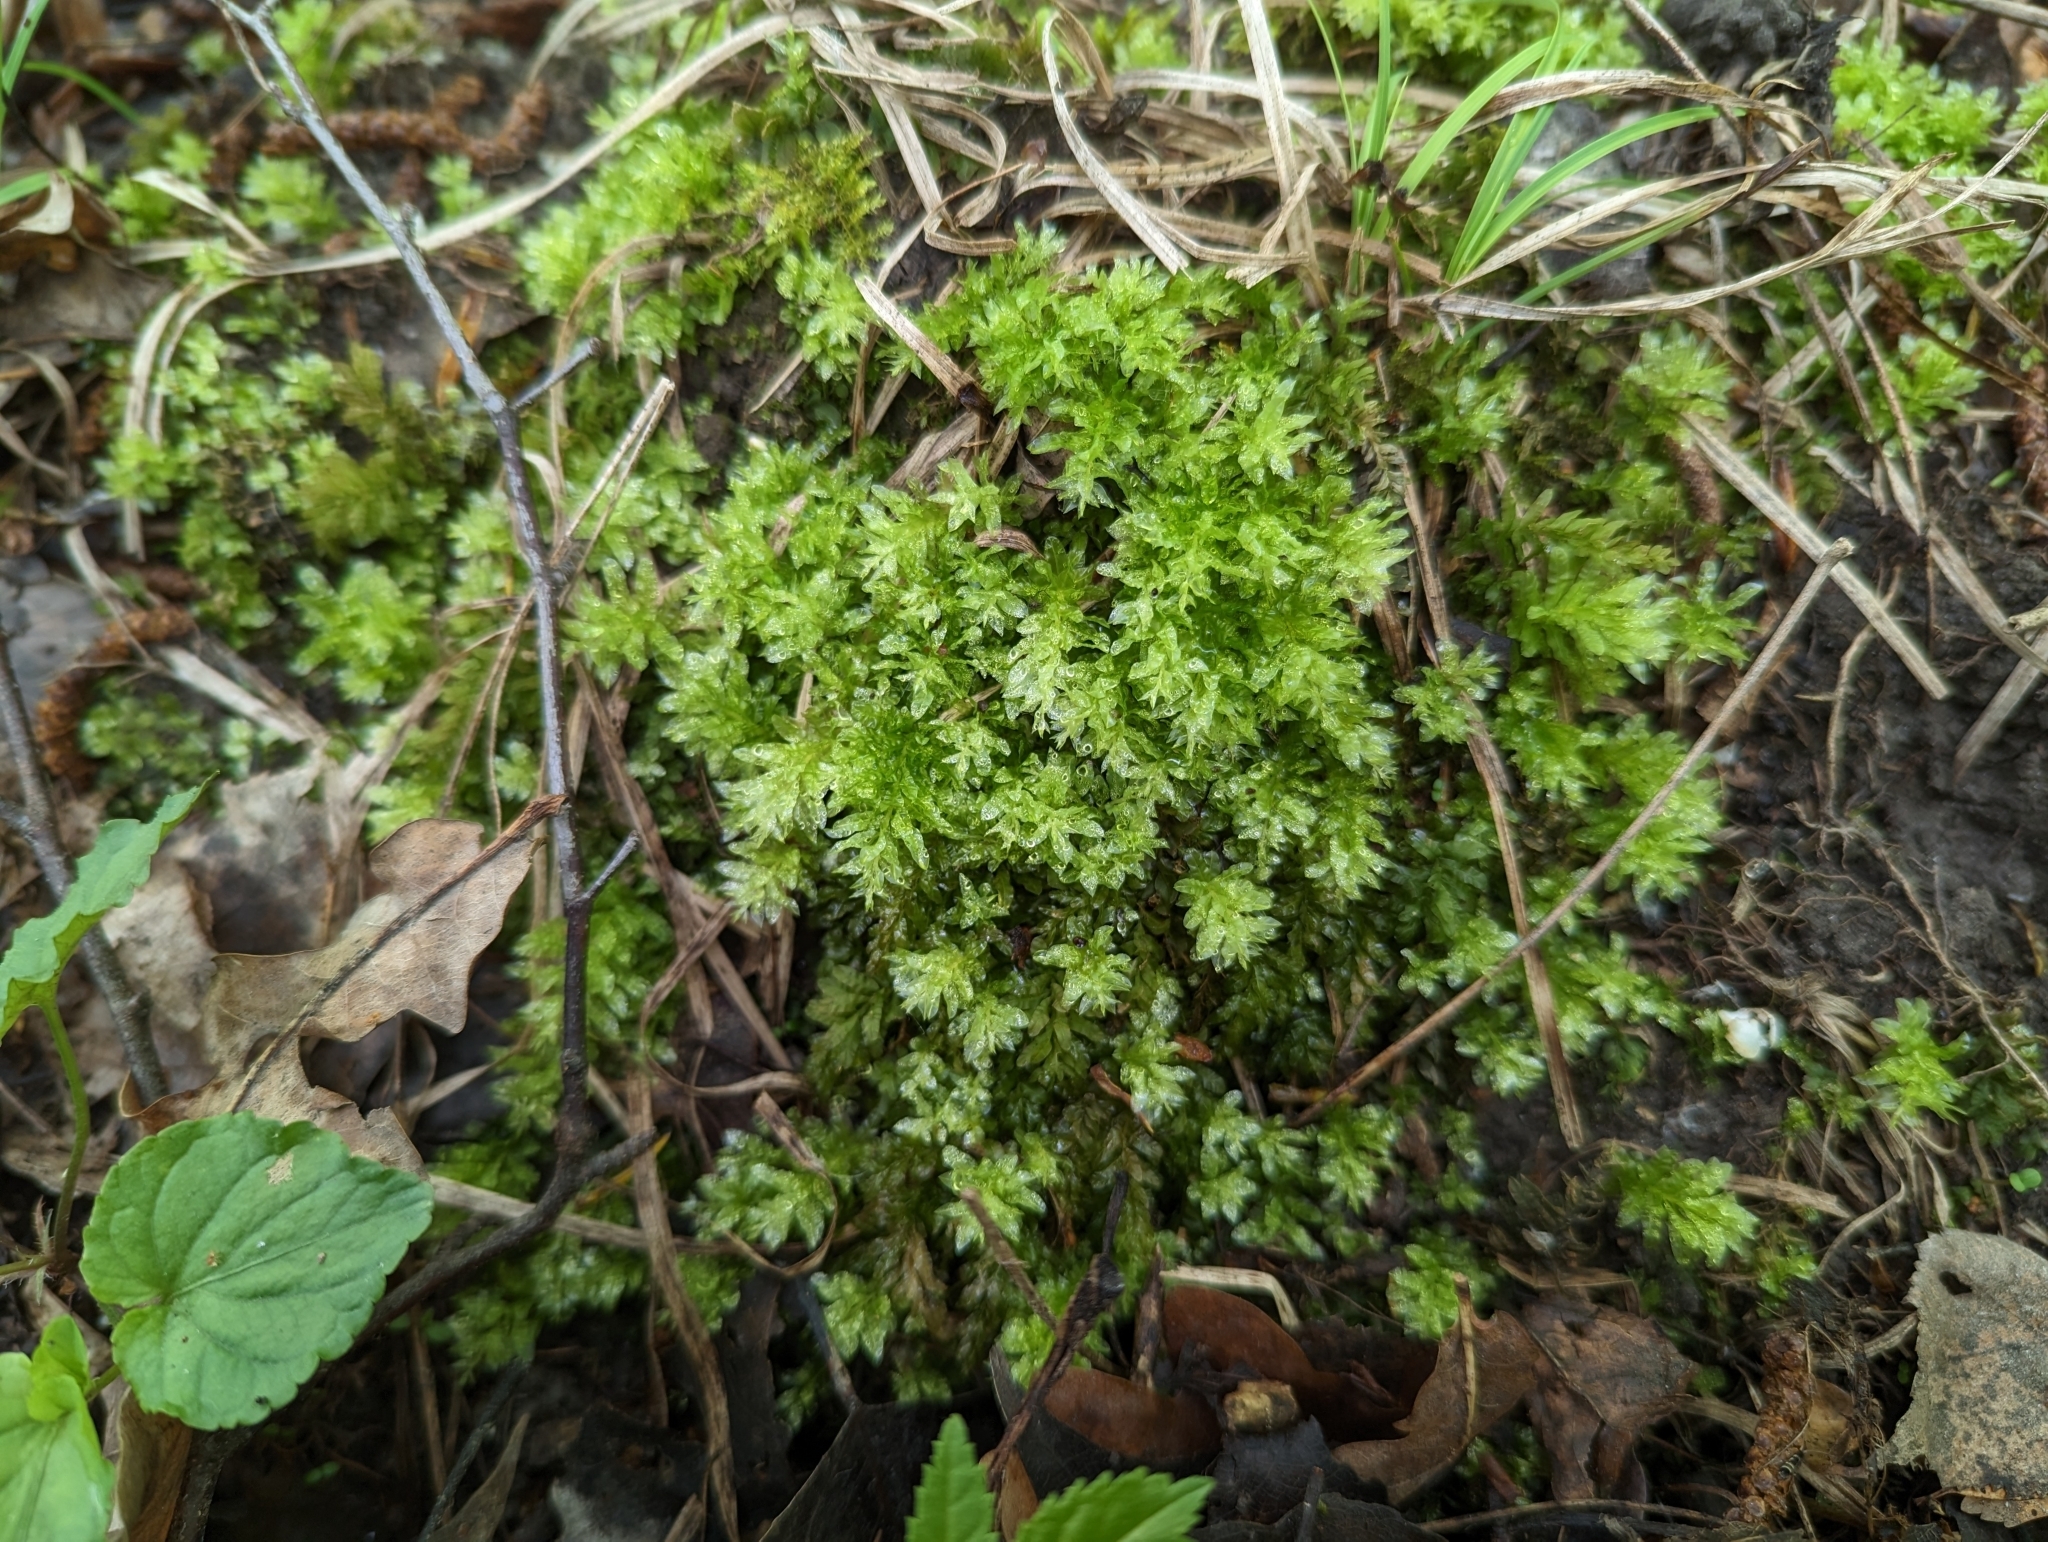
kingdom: Plantae
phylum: Bryophyta
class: Bryopsida
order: Bryales
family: Mniaceae
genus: Plagiomnium
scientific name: Plagiomnium undulatum
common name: Hart's-tongue thyme-moss
